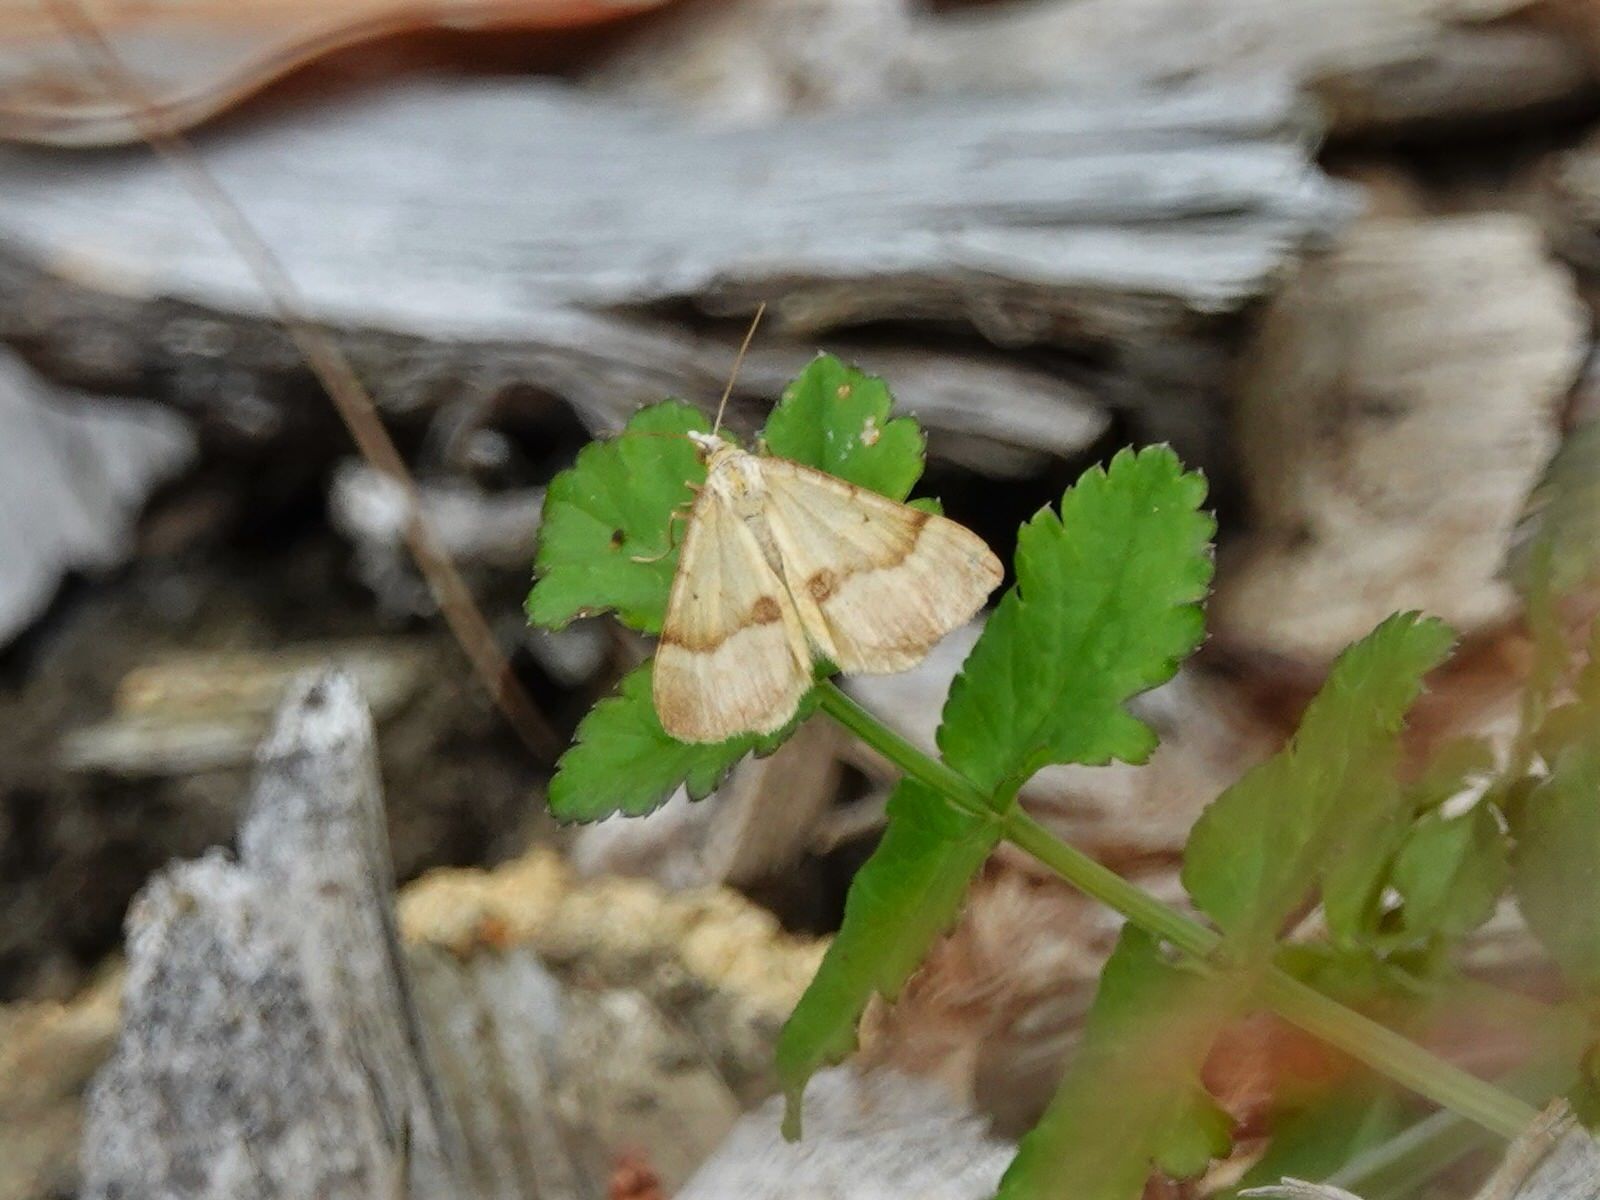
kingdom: Animalia
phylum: Arthropoda
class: Insecta
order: Lepidoptera
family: Geometridae
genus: Anachloris
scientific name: Anachloris subochraria
